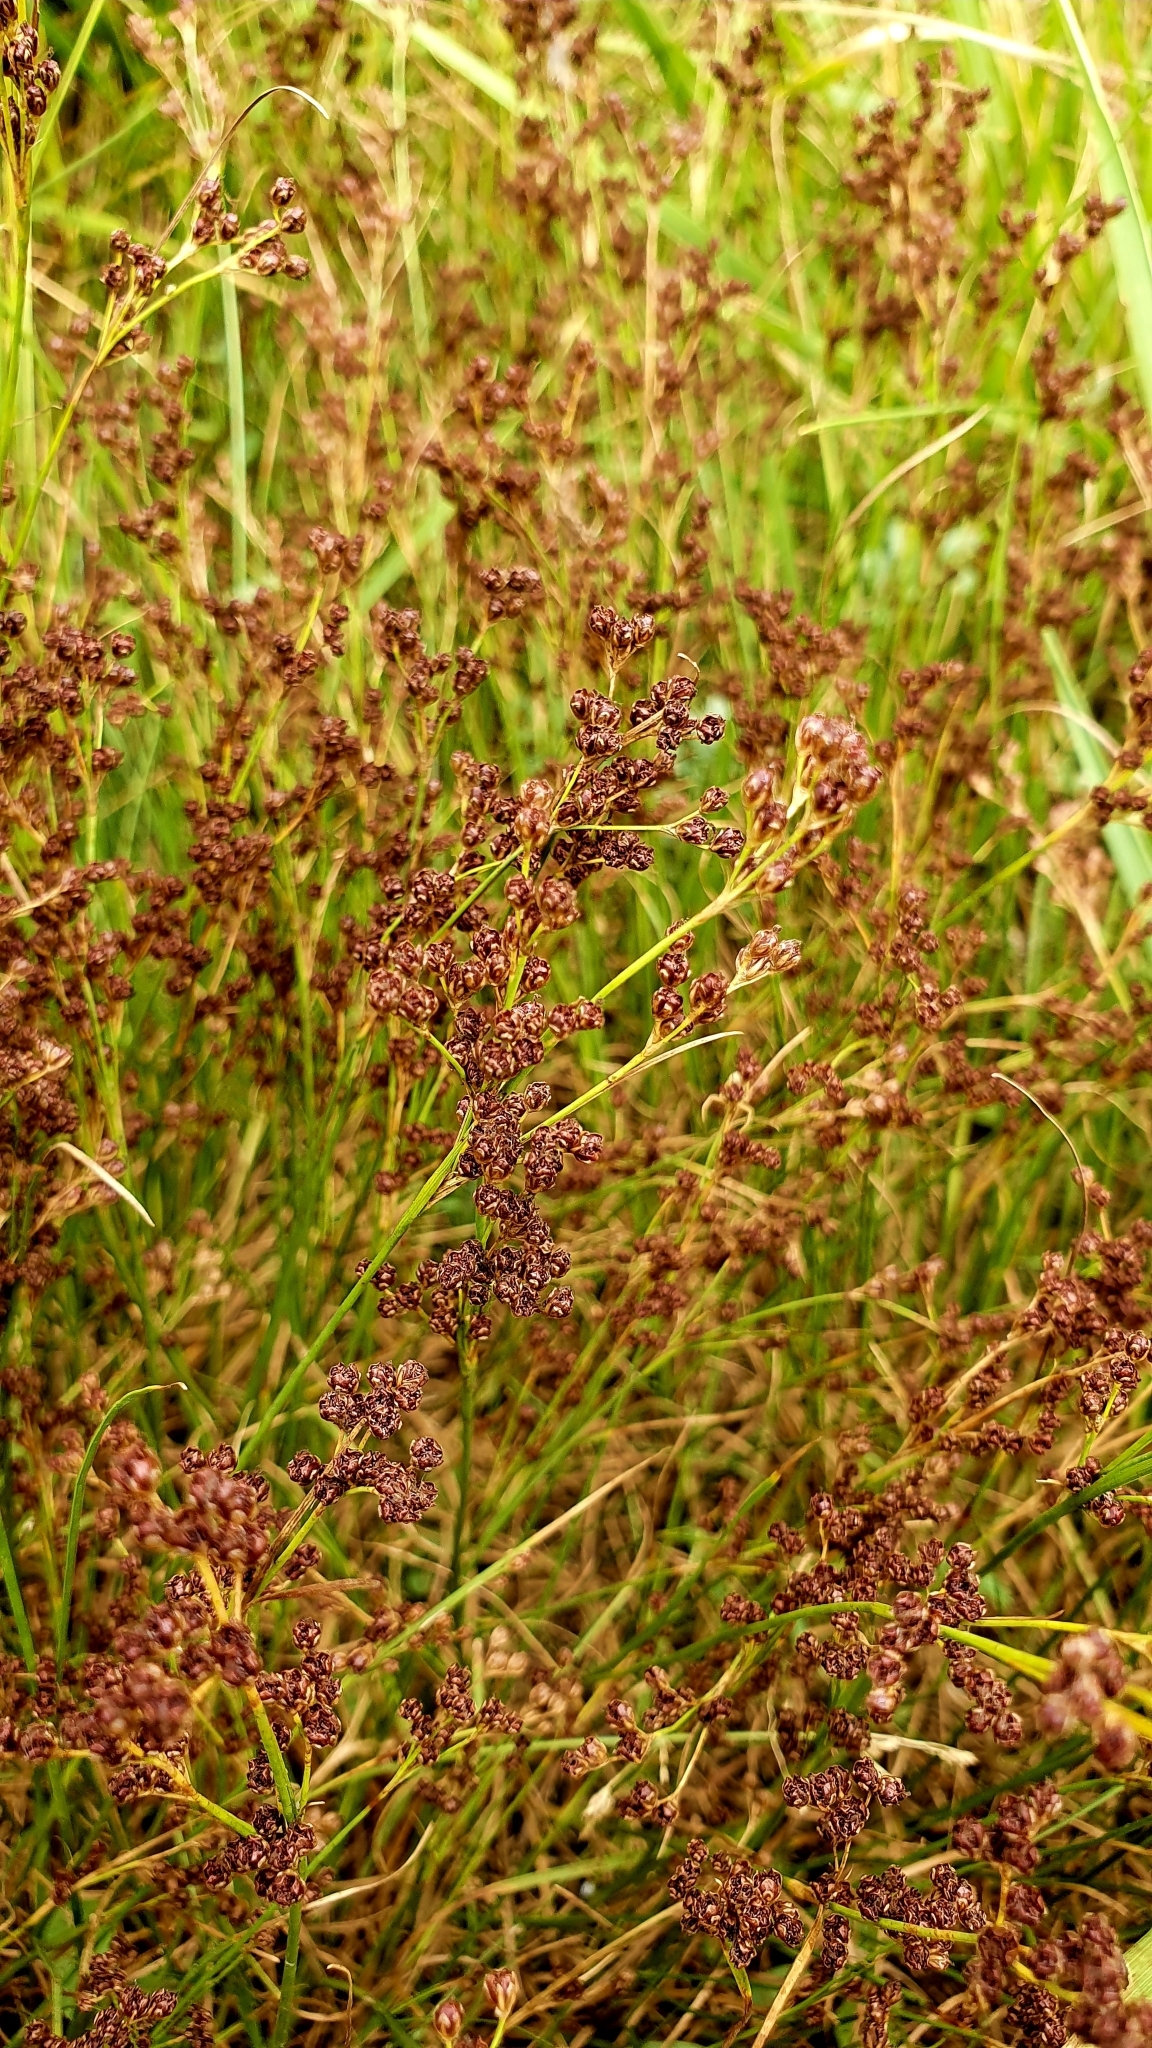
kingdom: Plantae
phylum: Tracheophyta
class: Liliopsida
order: Poales
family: Juncaceae
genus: Juncus
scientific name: Juncus compressus
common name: Round-fruited rush
